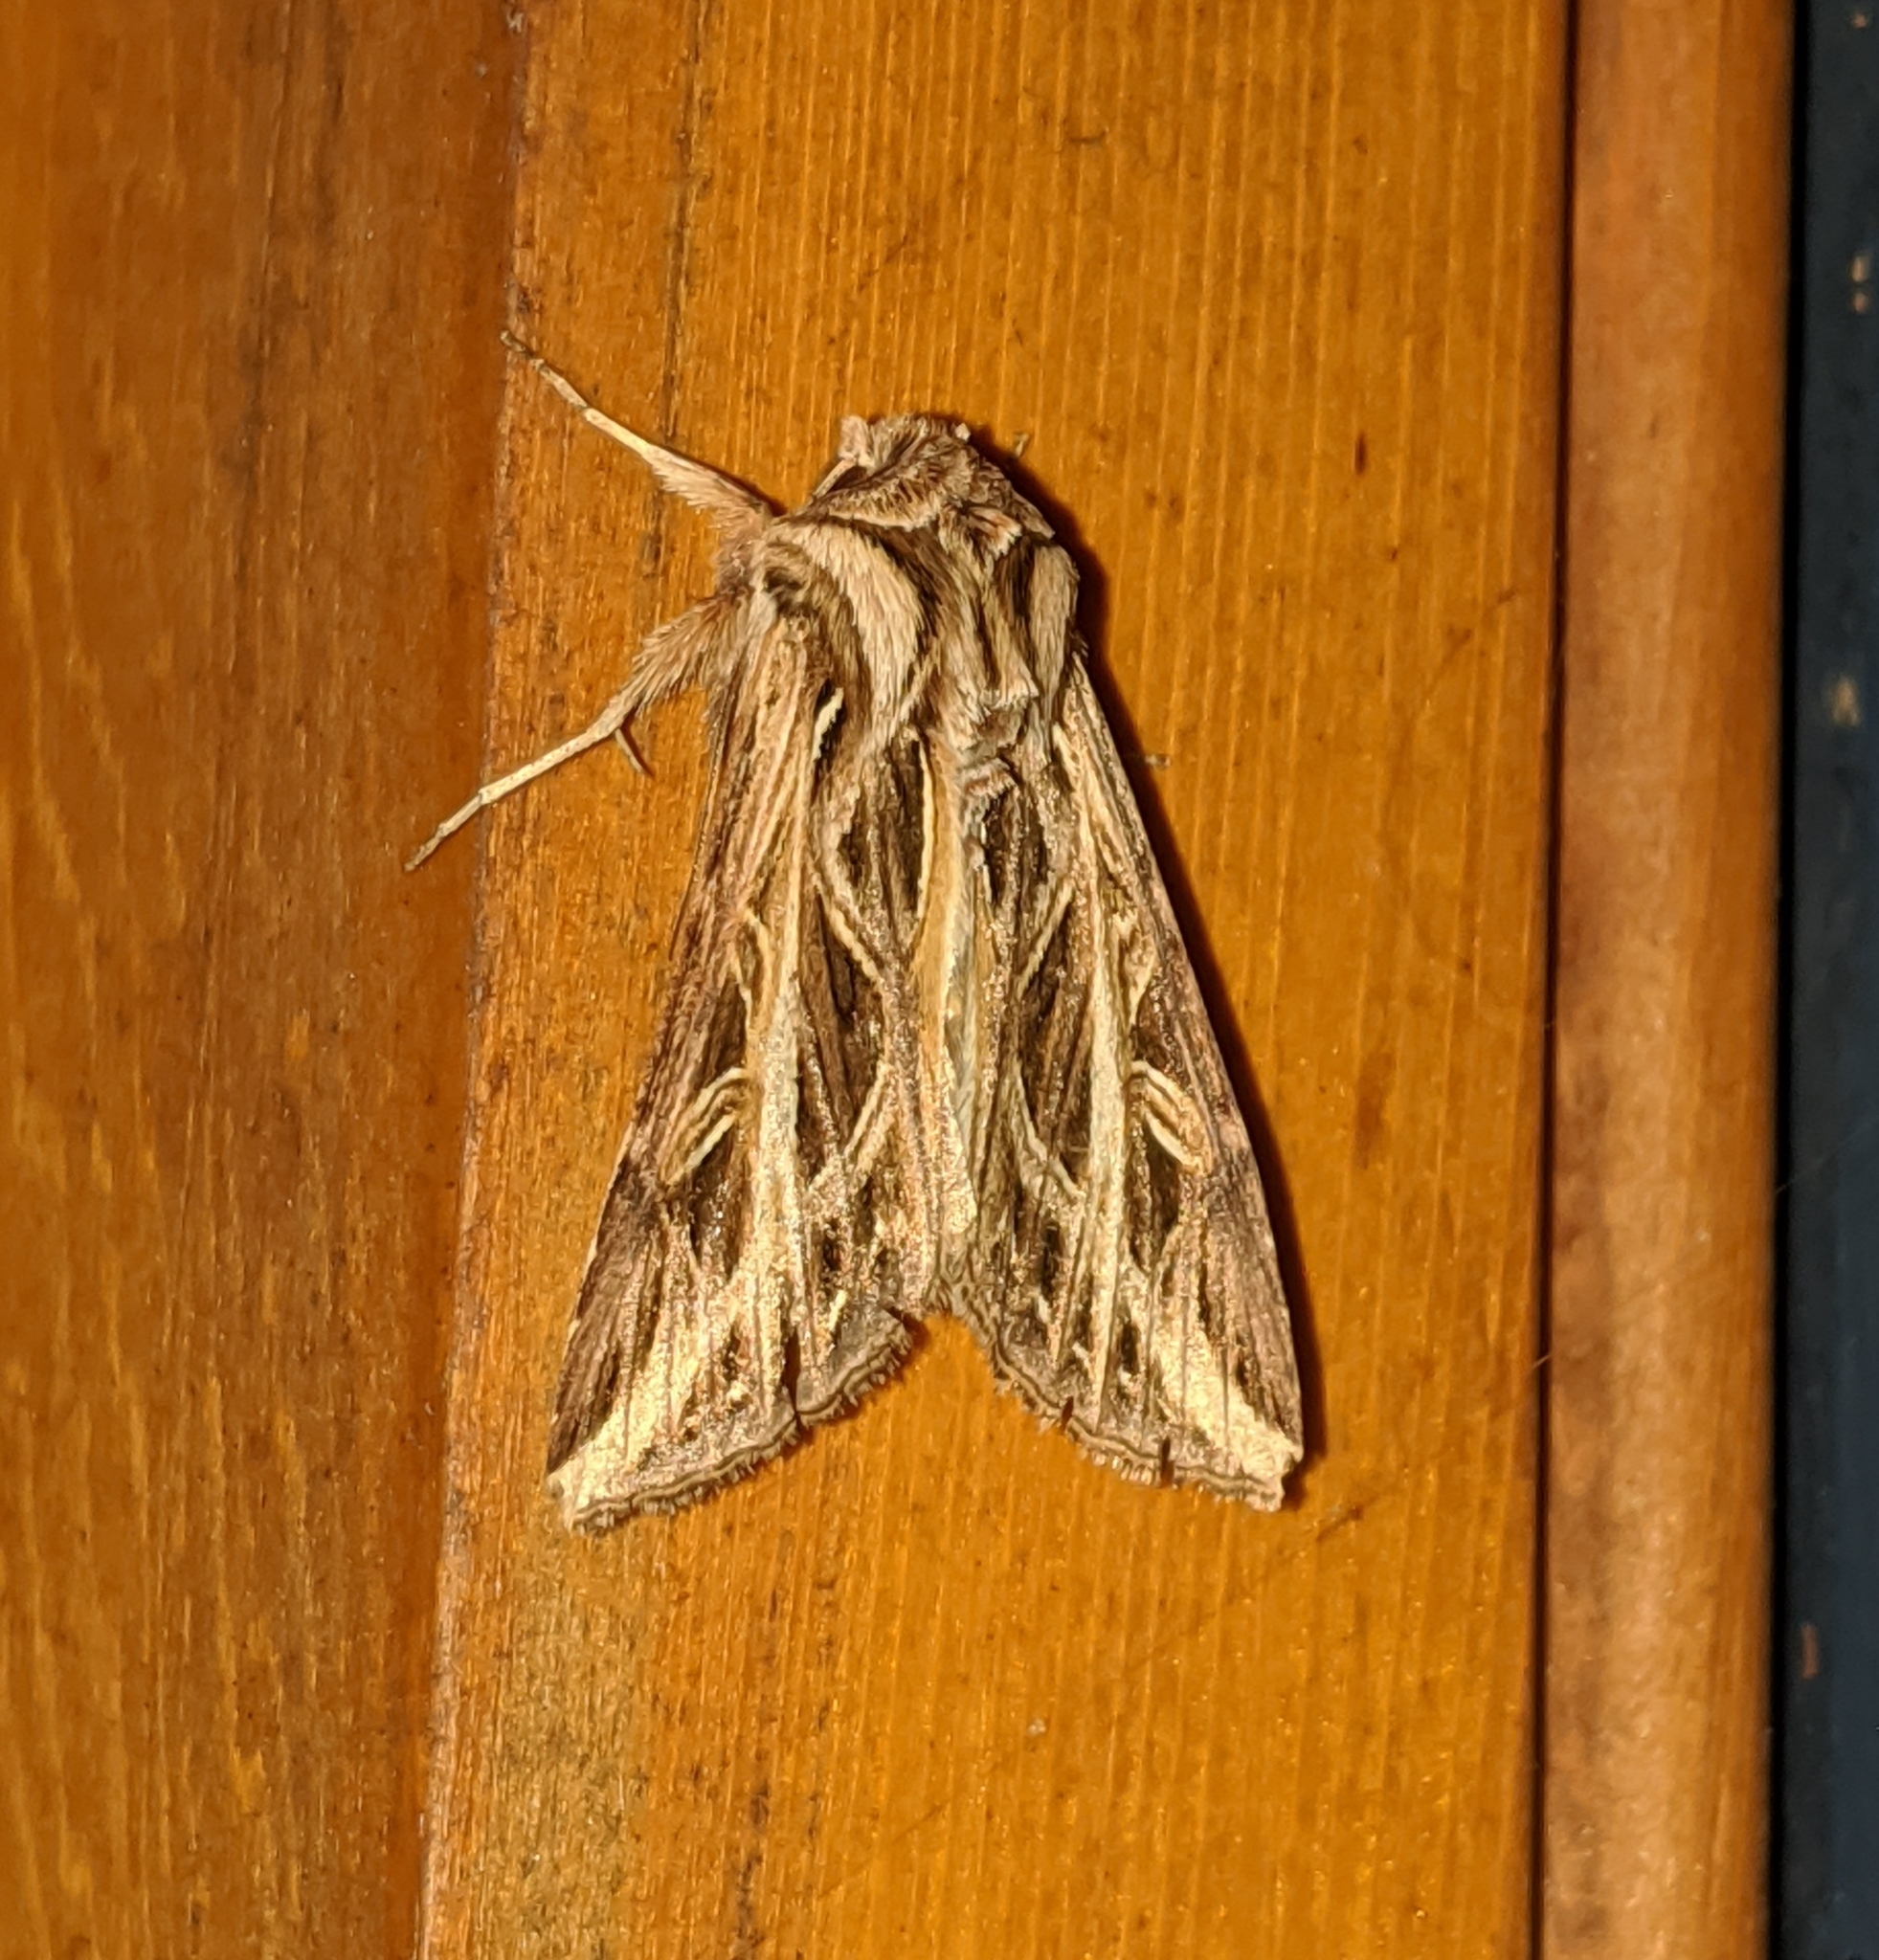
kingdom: Animalia
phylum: Arthropoda
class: Insecta
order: Lepidoptera
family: Noctuidae
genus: Dargida
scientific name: Dargida procinctus
